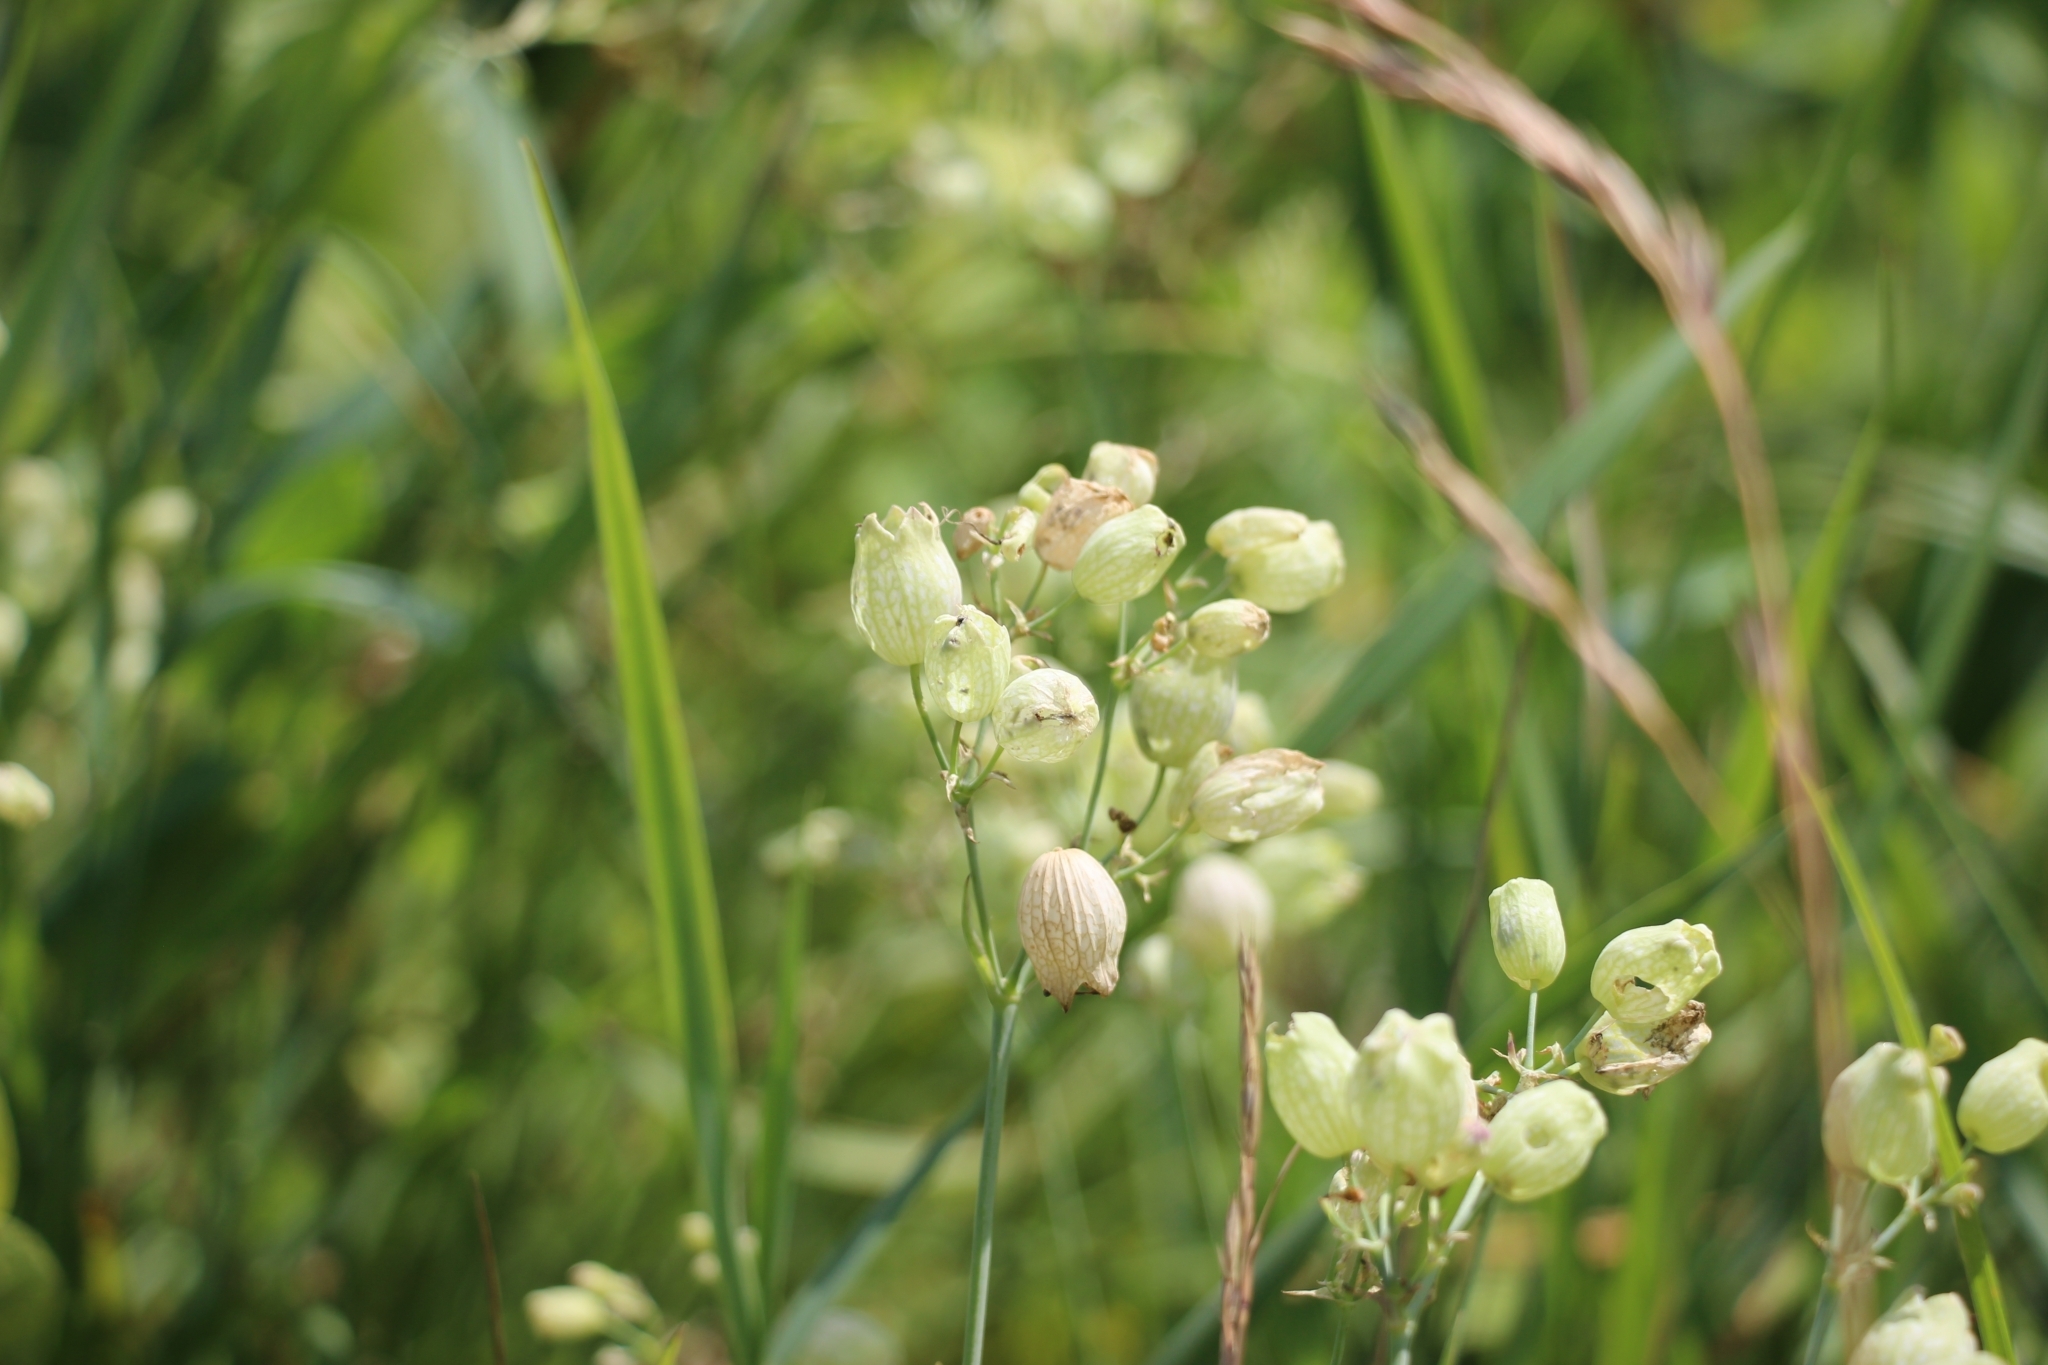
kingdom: Plantae
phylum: Tracheophyta
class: Magnoliopsida
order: Caryophyllales
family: Caryophyllaceae
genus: Silene
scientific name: Silene vulgaris
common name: Bladder campion
